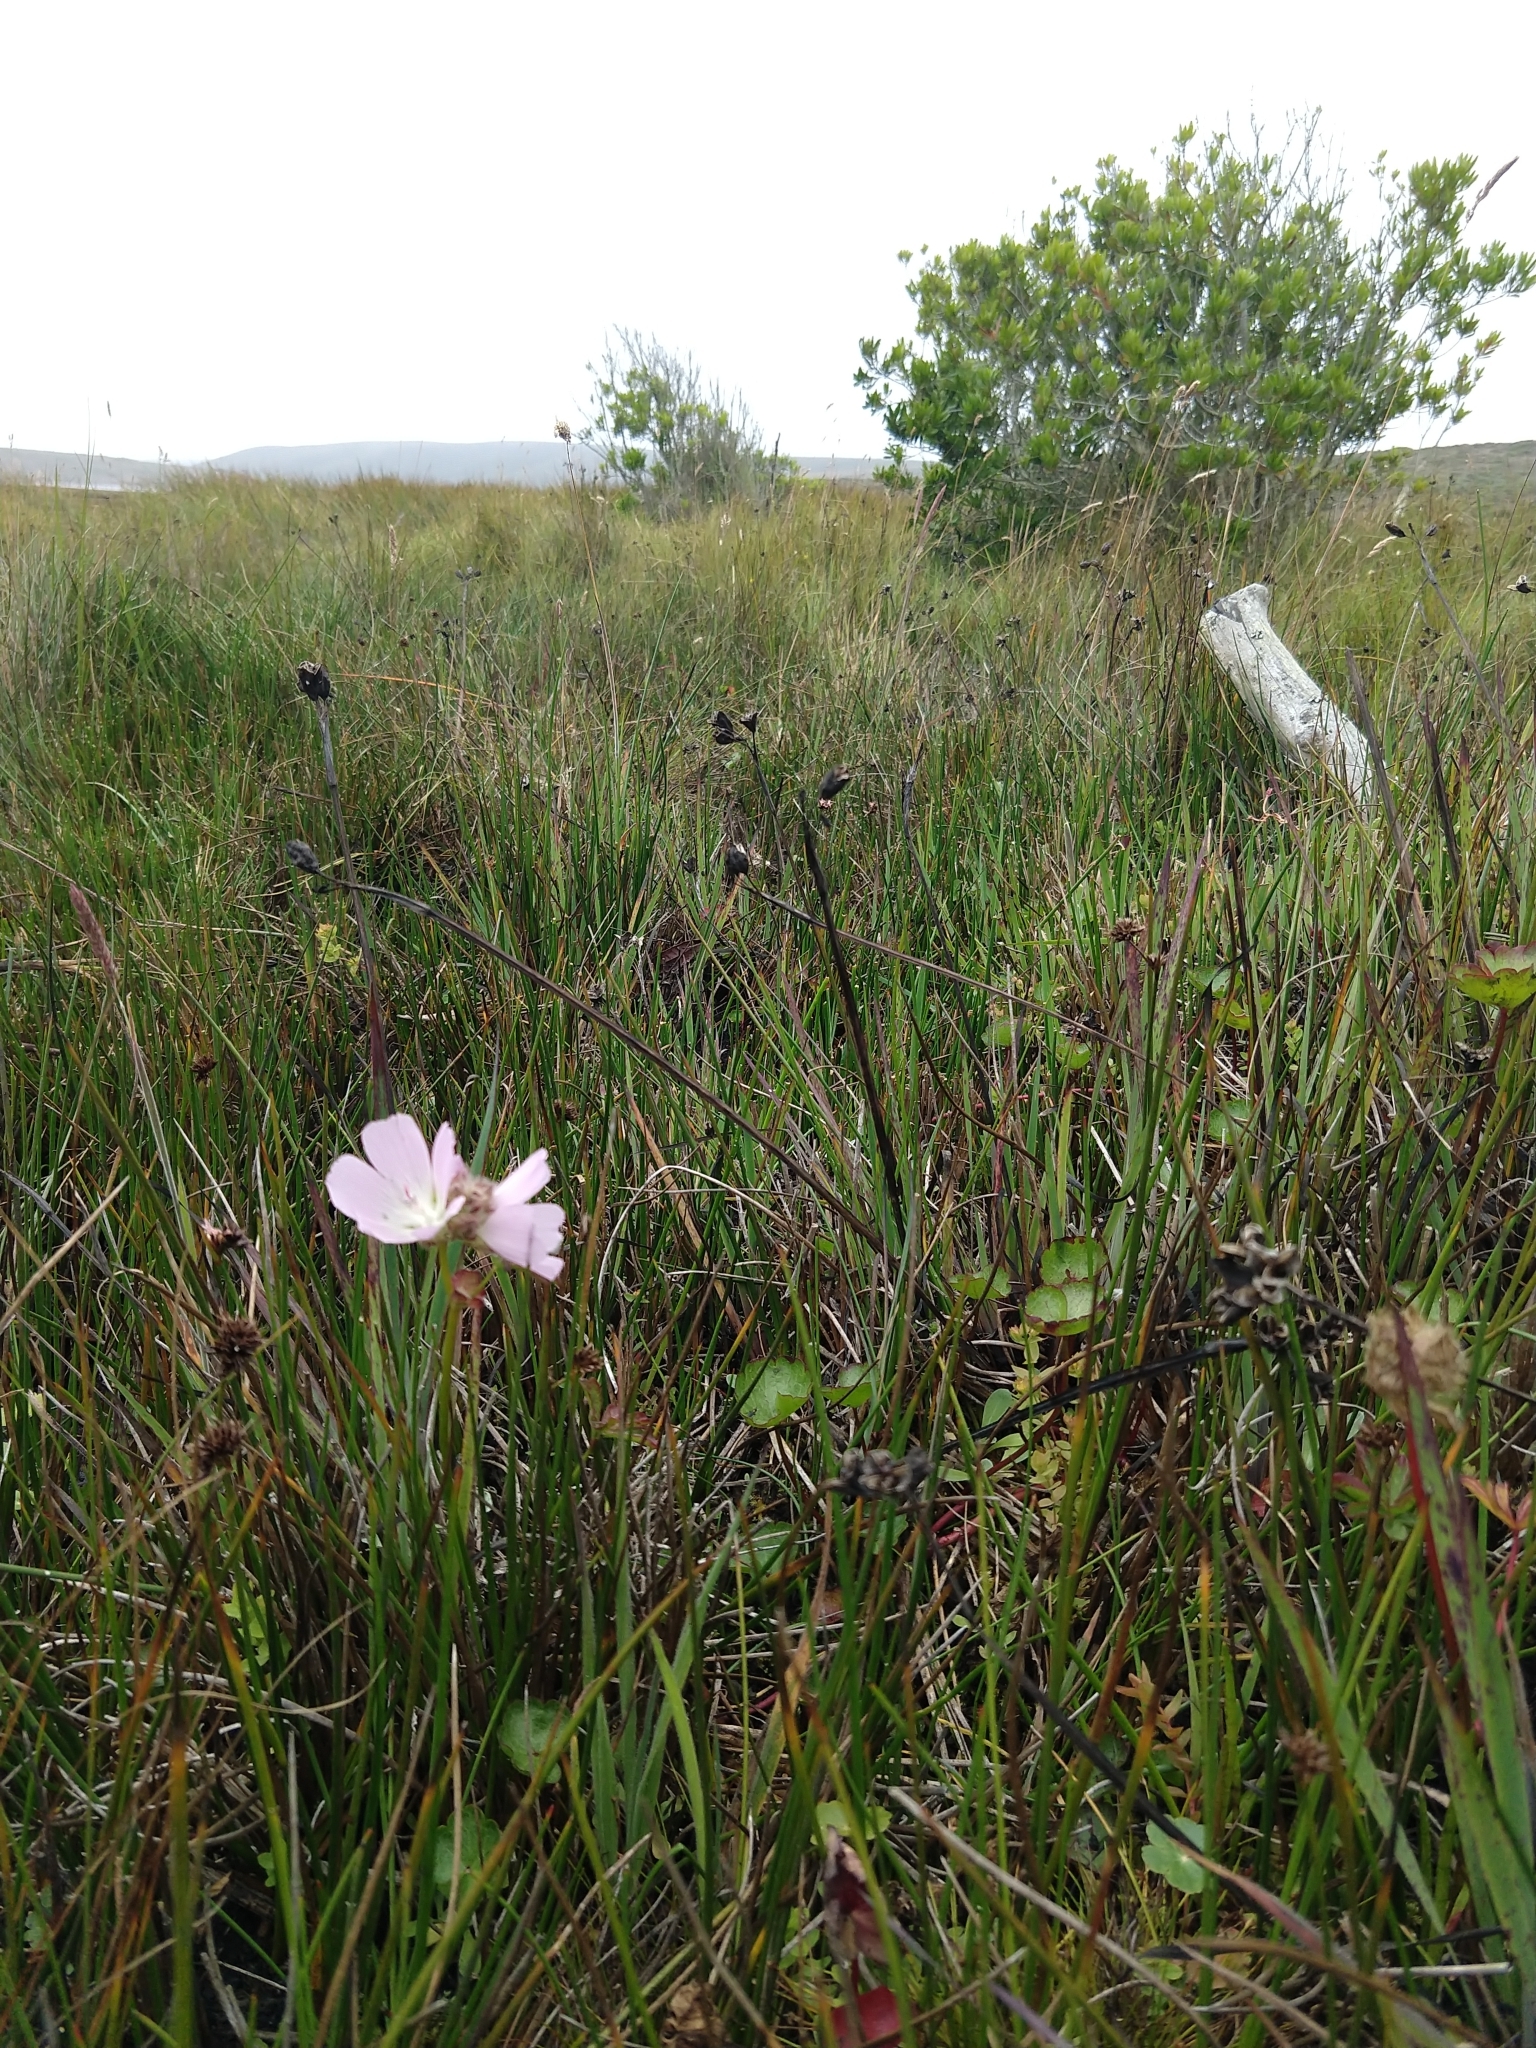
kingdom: Plantae
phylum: Tracheophyta
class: Magnoliopsida
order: Malvales
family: Malvaceae
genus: Sidalcea
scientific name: Sidalcea calycosa
